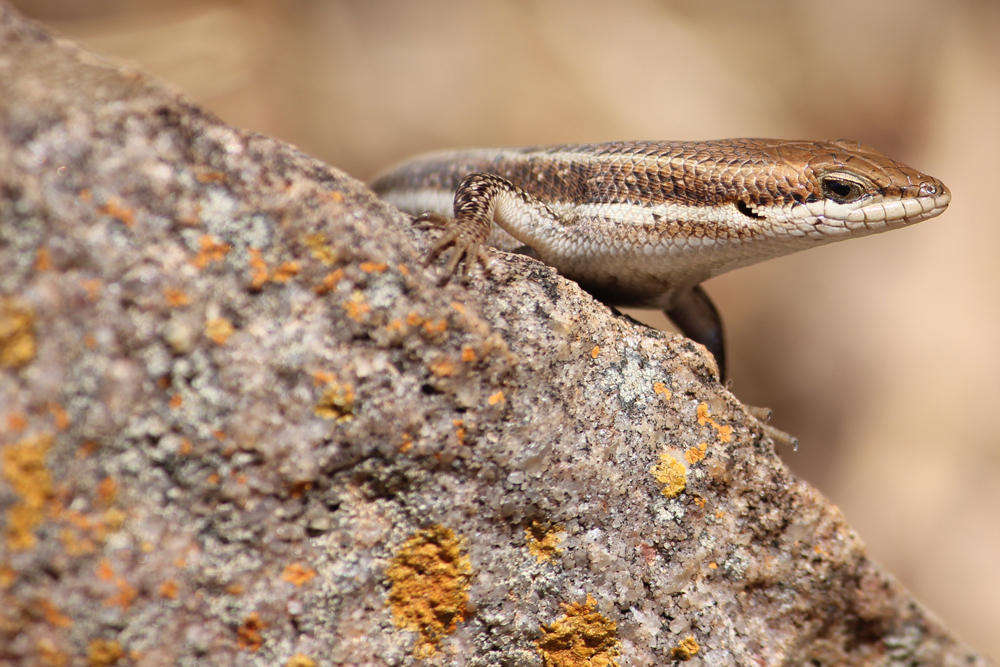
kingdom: Animalia
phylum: Chordata
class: Squamata
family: Scincidae
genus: Trachylepis
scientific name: Trachylepis varia
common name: Eastern variable skink
